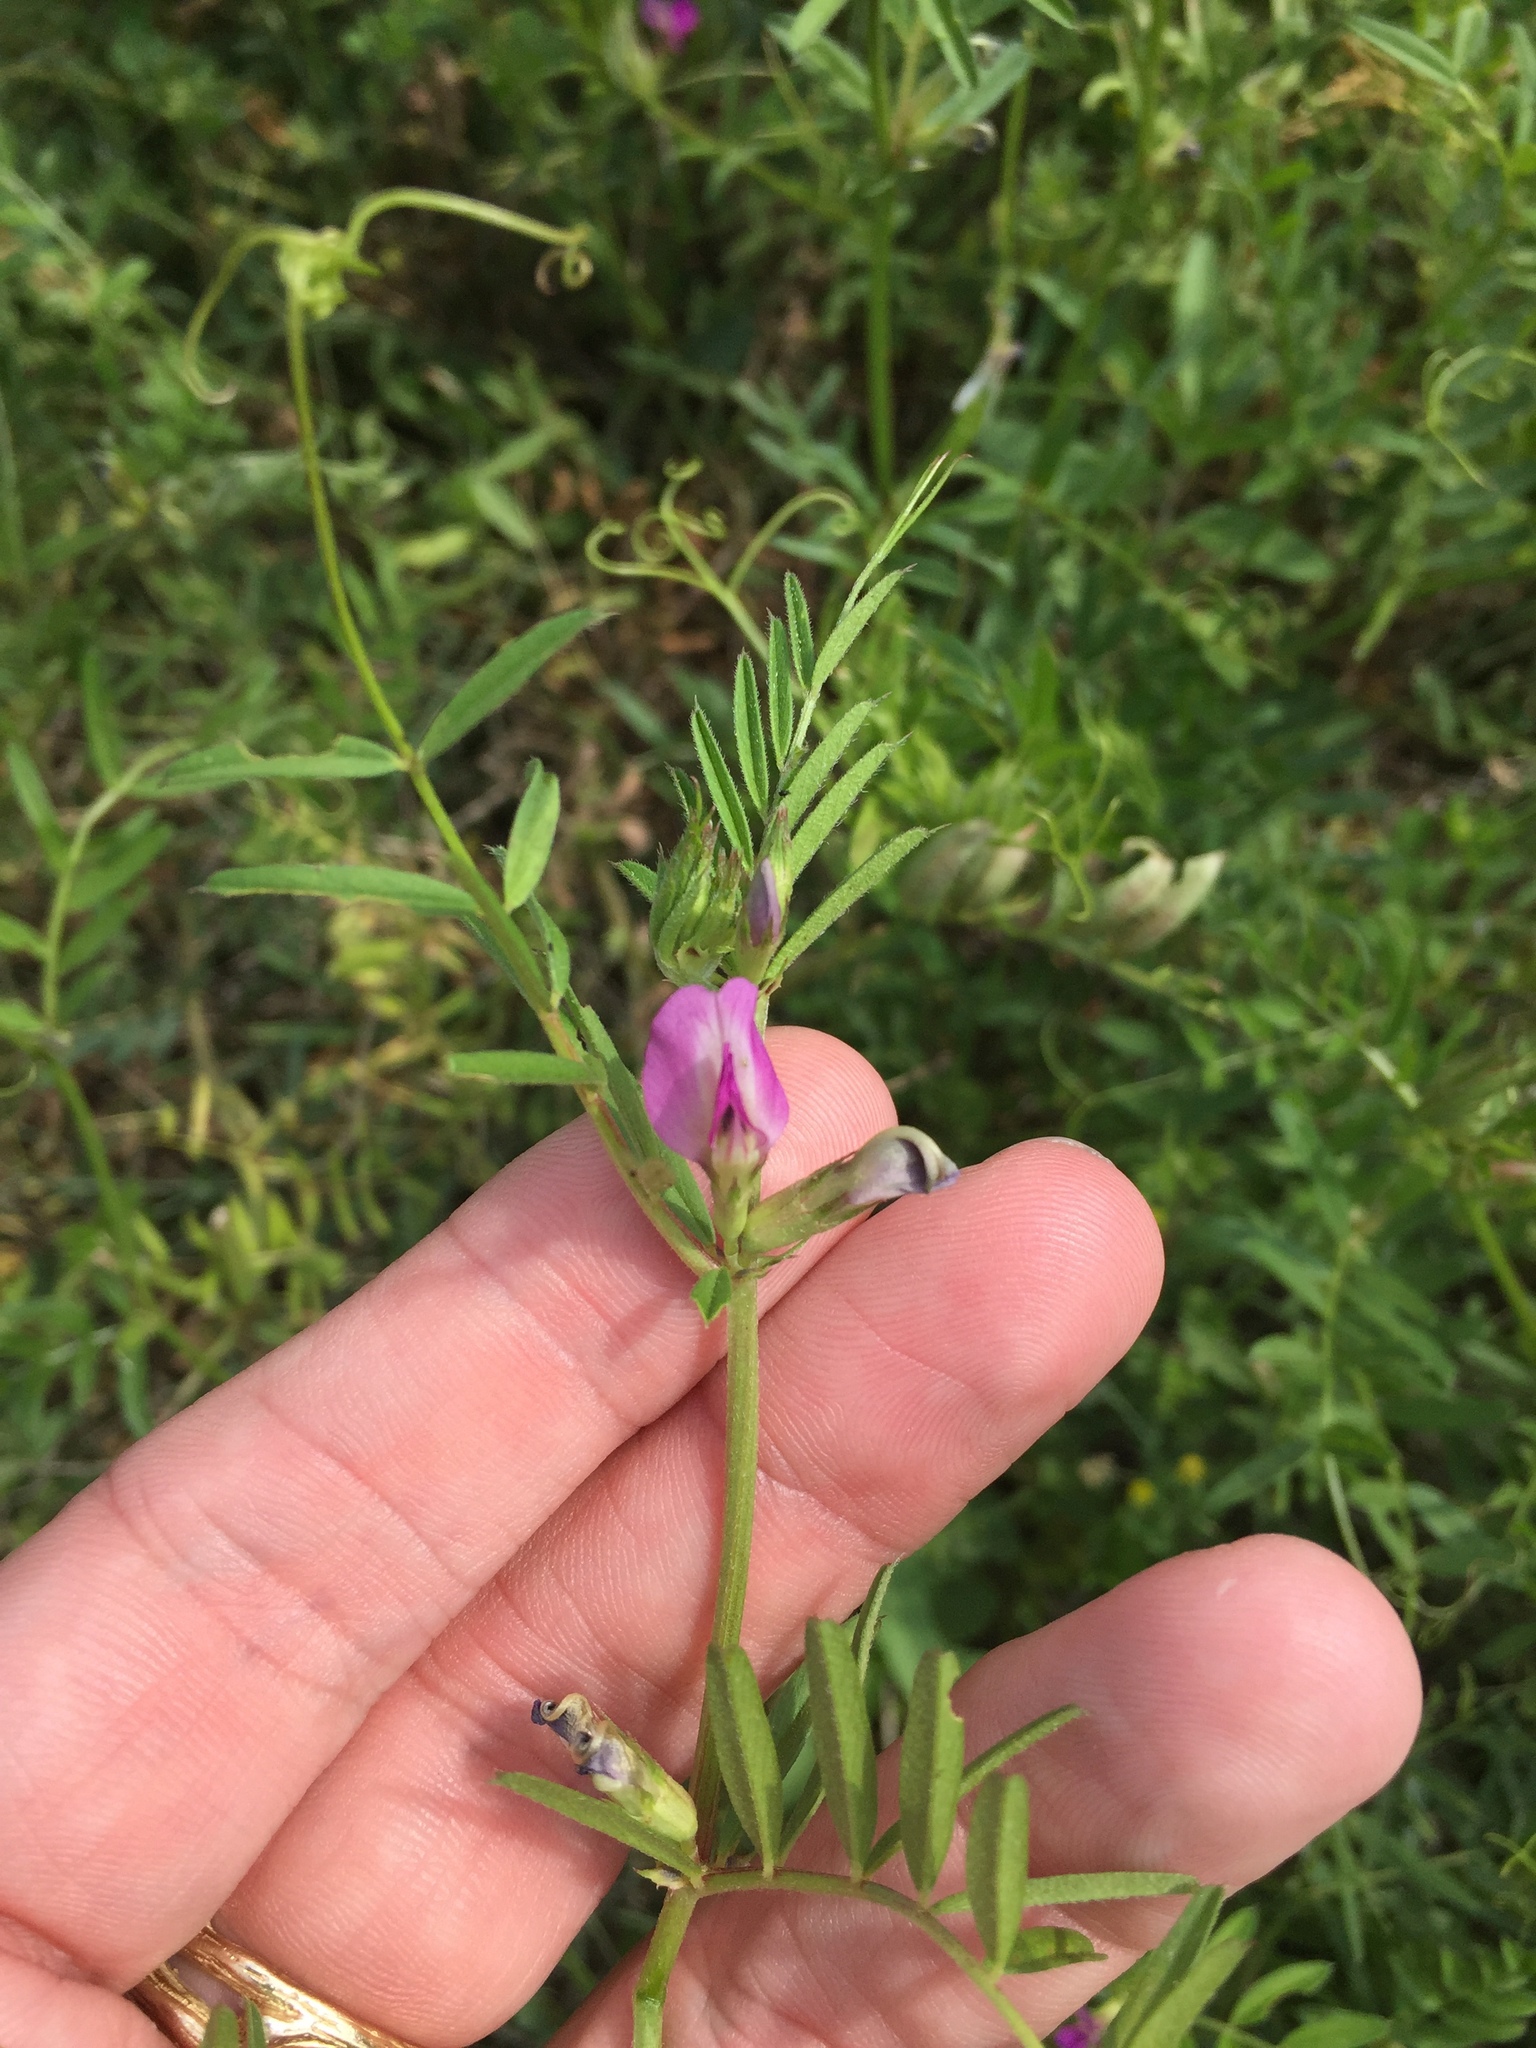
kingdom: Plantae
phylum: Tracheophyta
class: Magnoliopsida
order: Fabales
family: Fabaceae
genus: Vicia
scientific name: Vicia sativa
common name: Garden vetch
